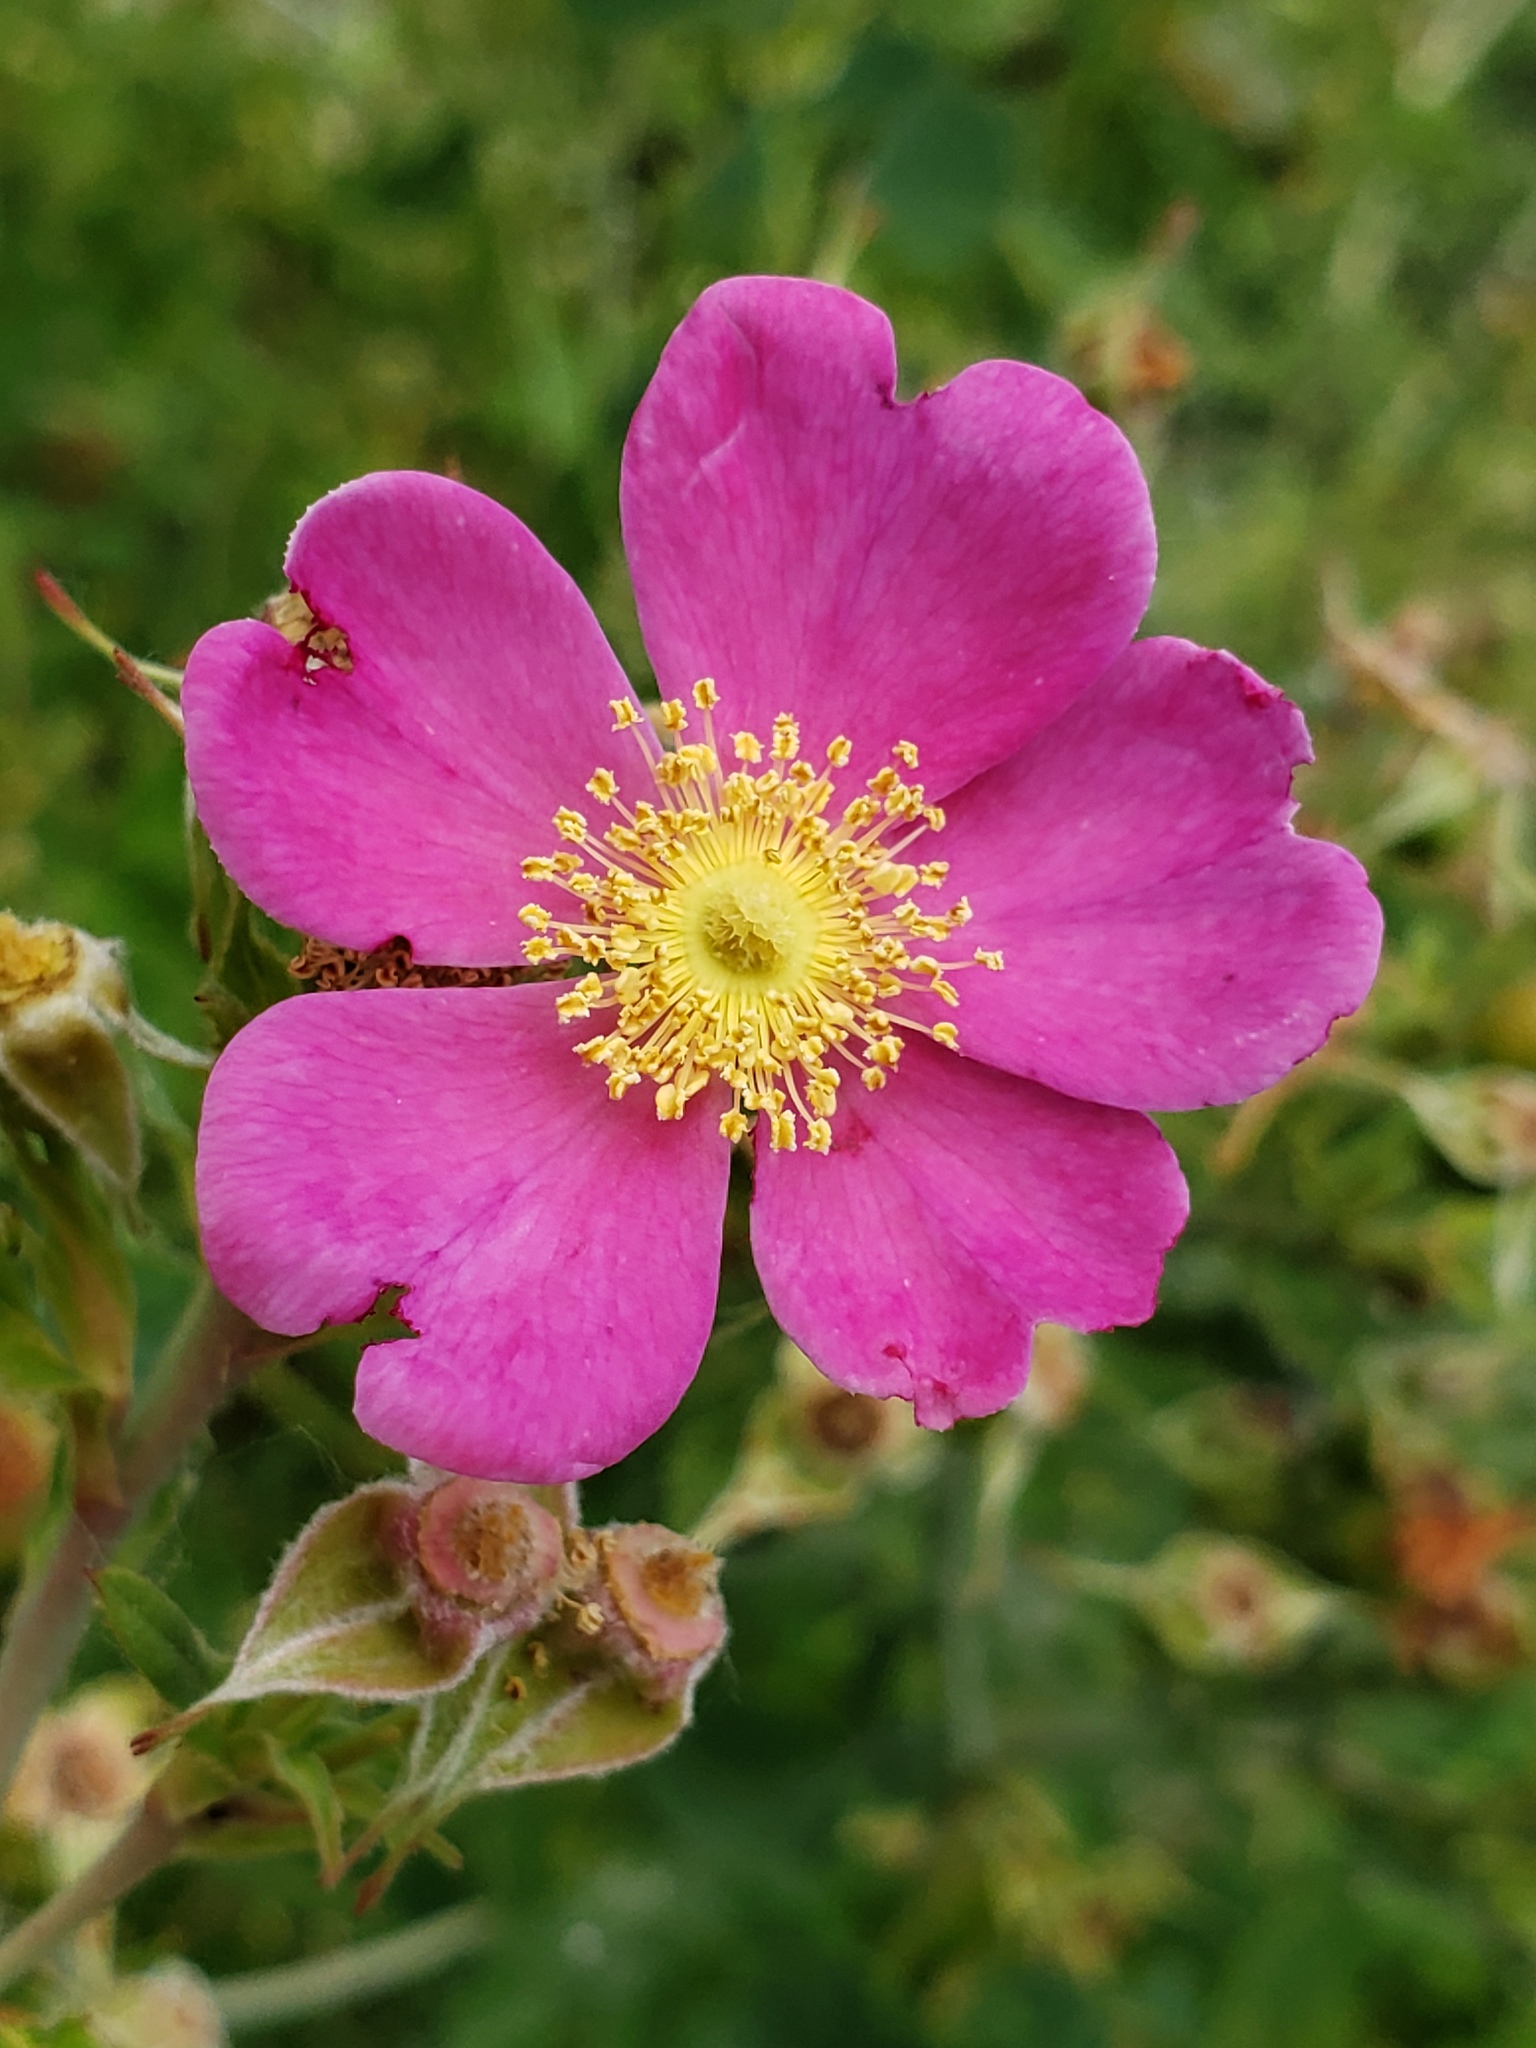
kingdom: Plantae
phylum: Tracheophyta
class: Magnoliopsida
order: Rosales
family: Rosaceae
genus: Rosa
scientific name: Rosa californica
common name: California rose
